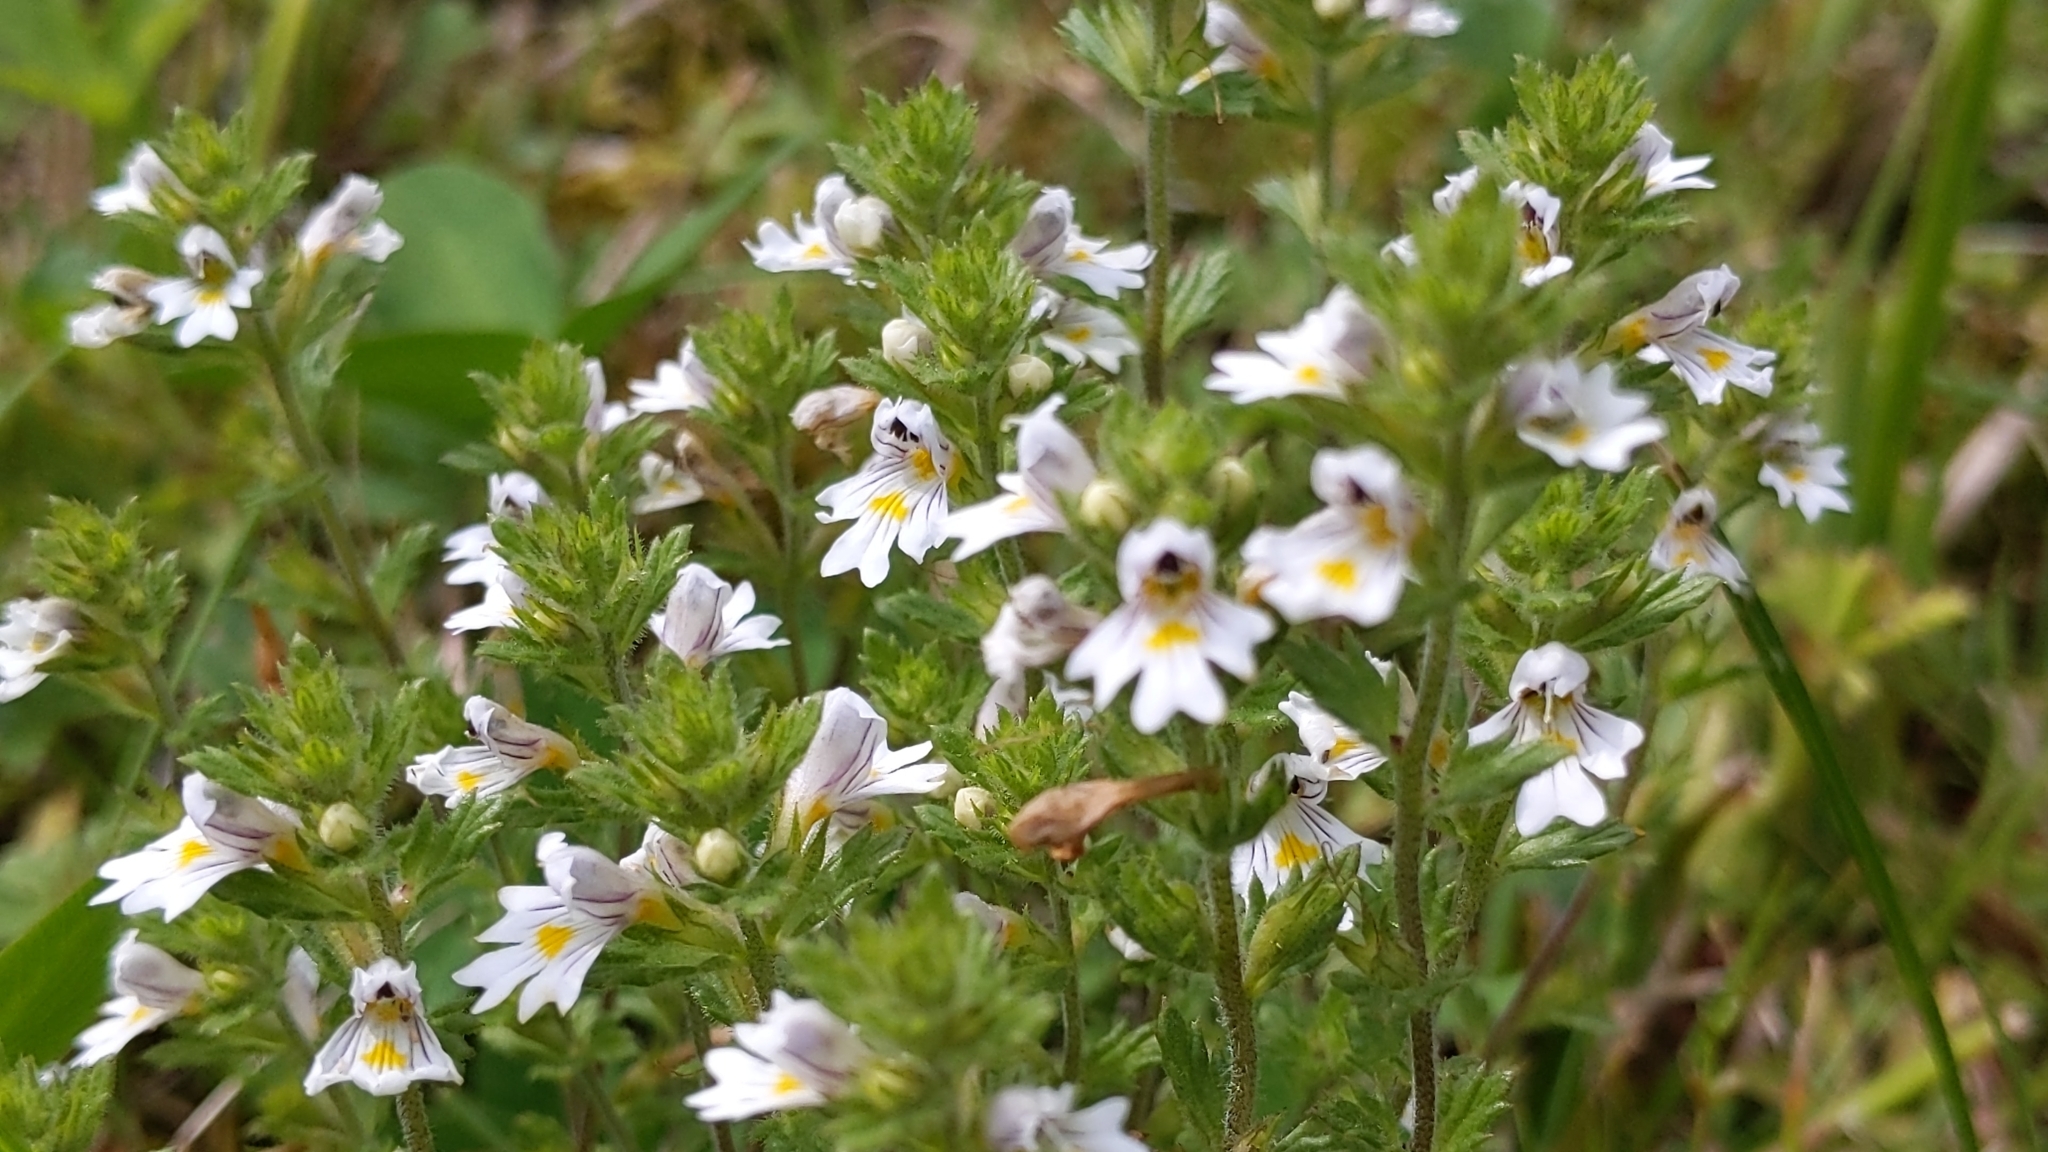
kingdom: Plantae
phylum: Tracheophyta
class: Magnoliopsida
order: Lamiales
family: Orobanchaceae
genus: Euphrasia
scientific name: Euphrasia officinalis
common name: Eyebright
